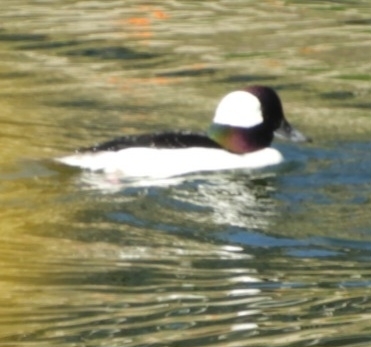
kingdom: Animalia
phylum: Chordata
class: Aves
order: Anseriformes
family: Anatidae
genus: Bucephala
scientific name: Bucephala albeola
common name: Bufflehead
